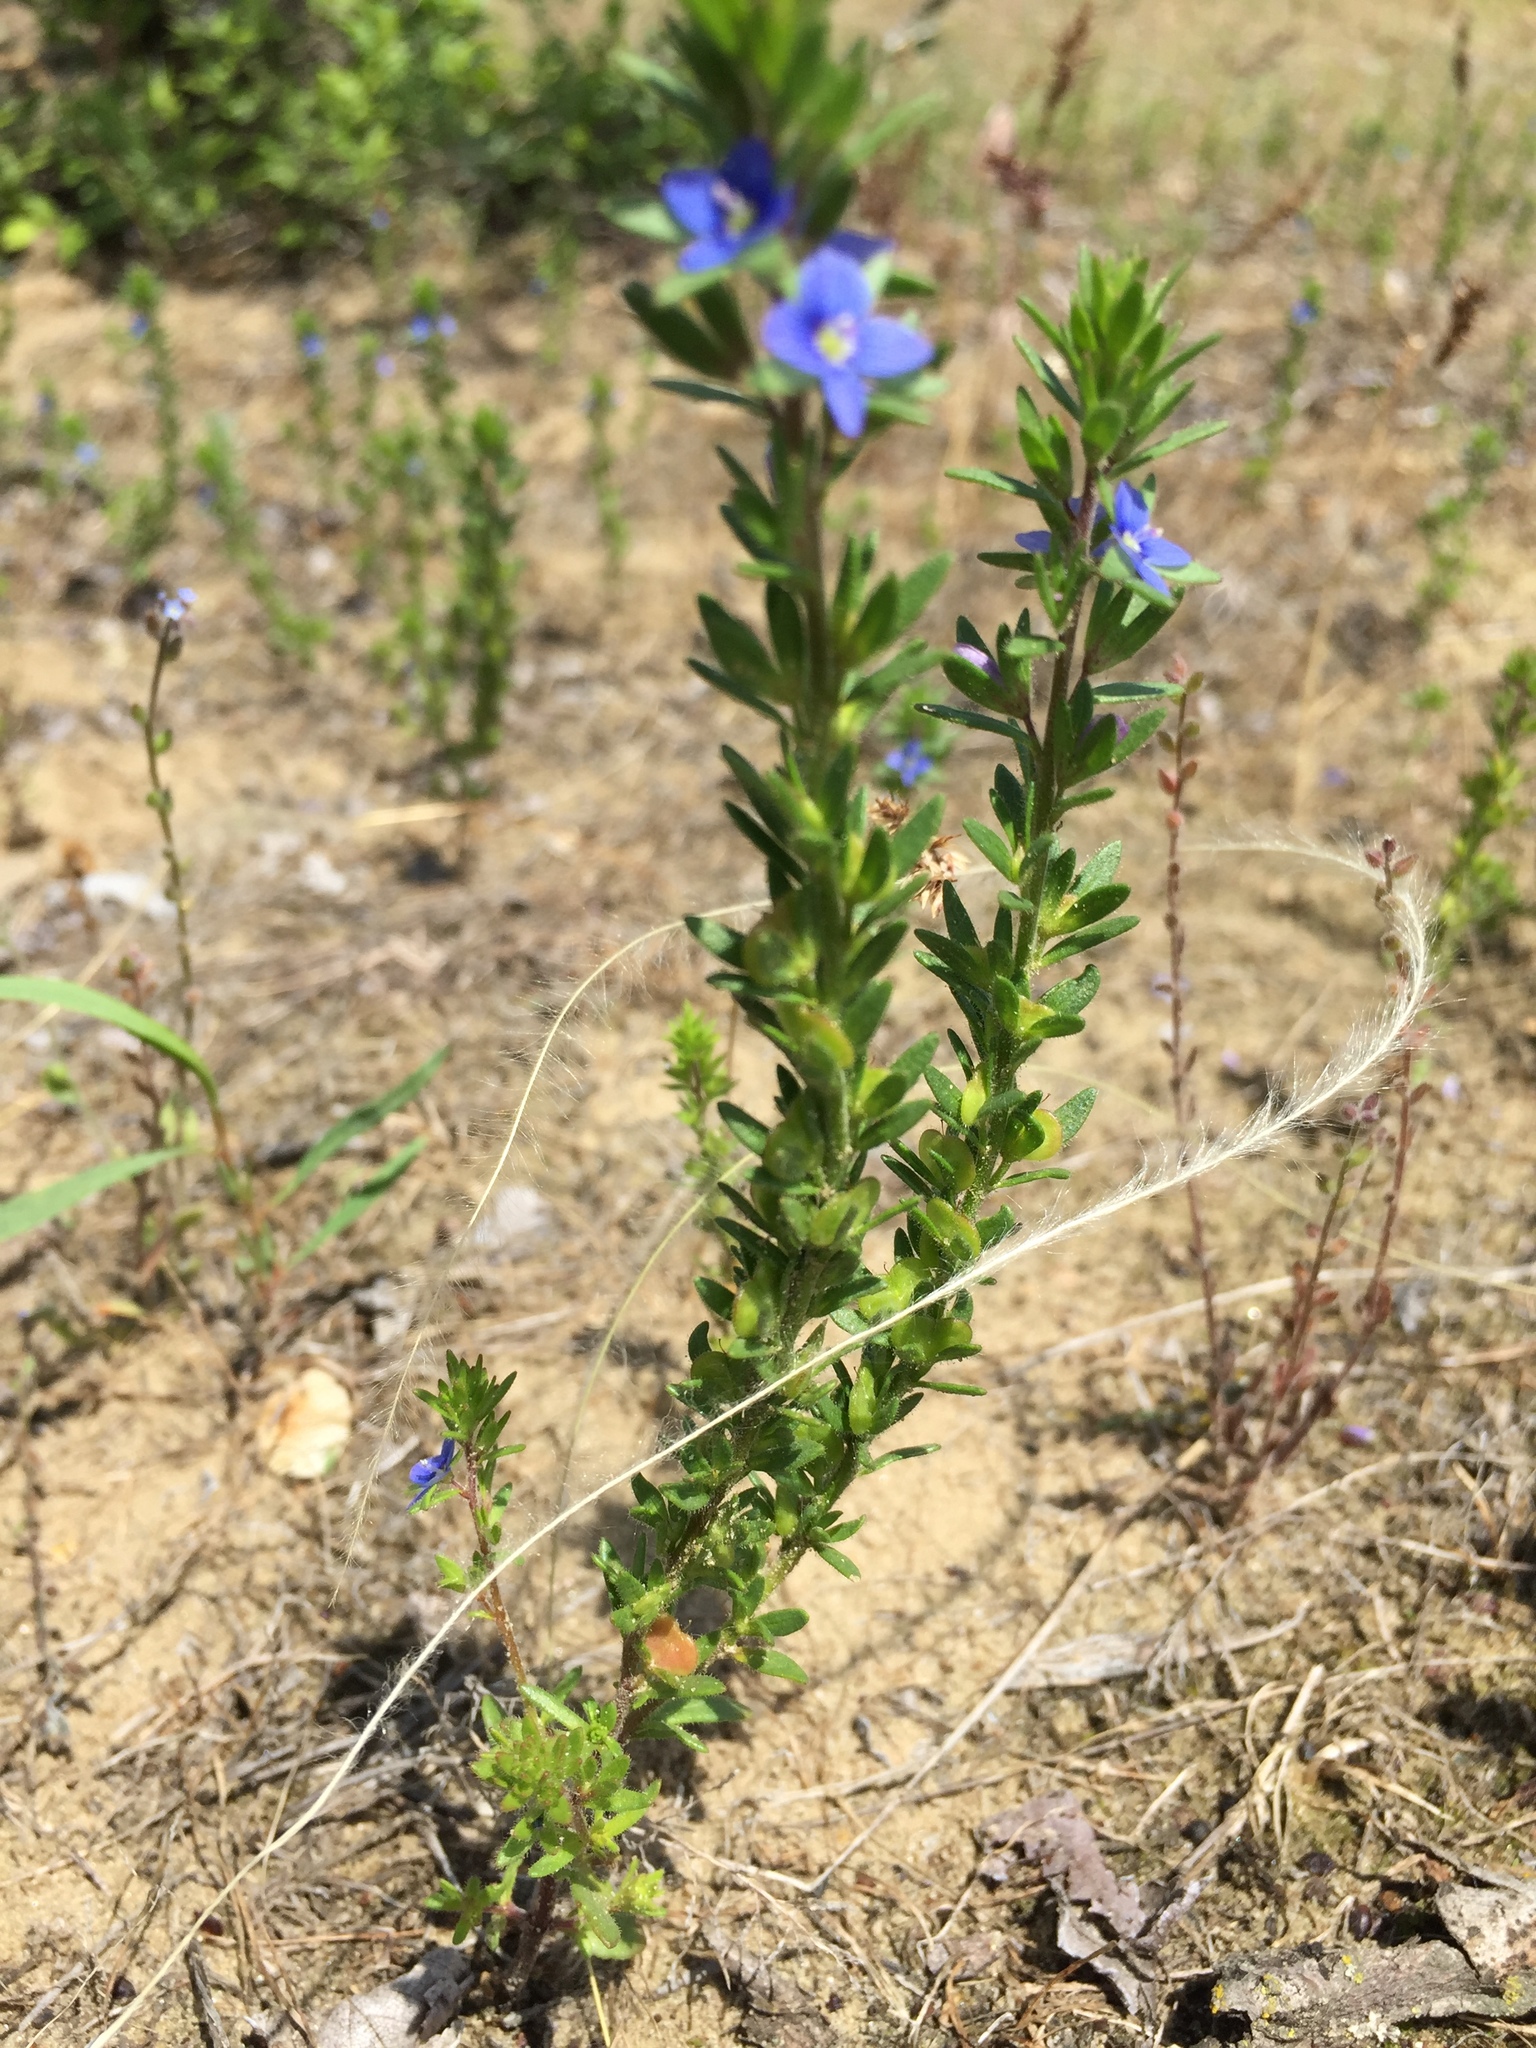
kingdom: Plantae
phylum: Tracheophyta
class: Magnoliopsida
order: Lamiales
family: Plantaginaceae
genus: Veronica
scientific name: Veronica dillenii
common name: Dillenius' speedwell
